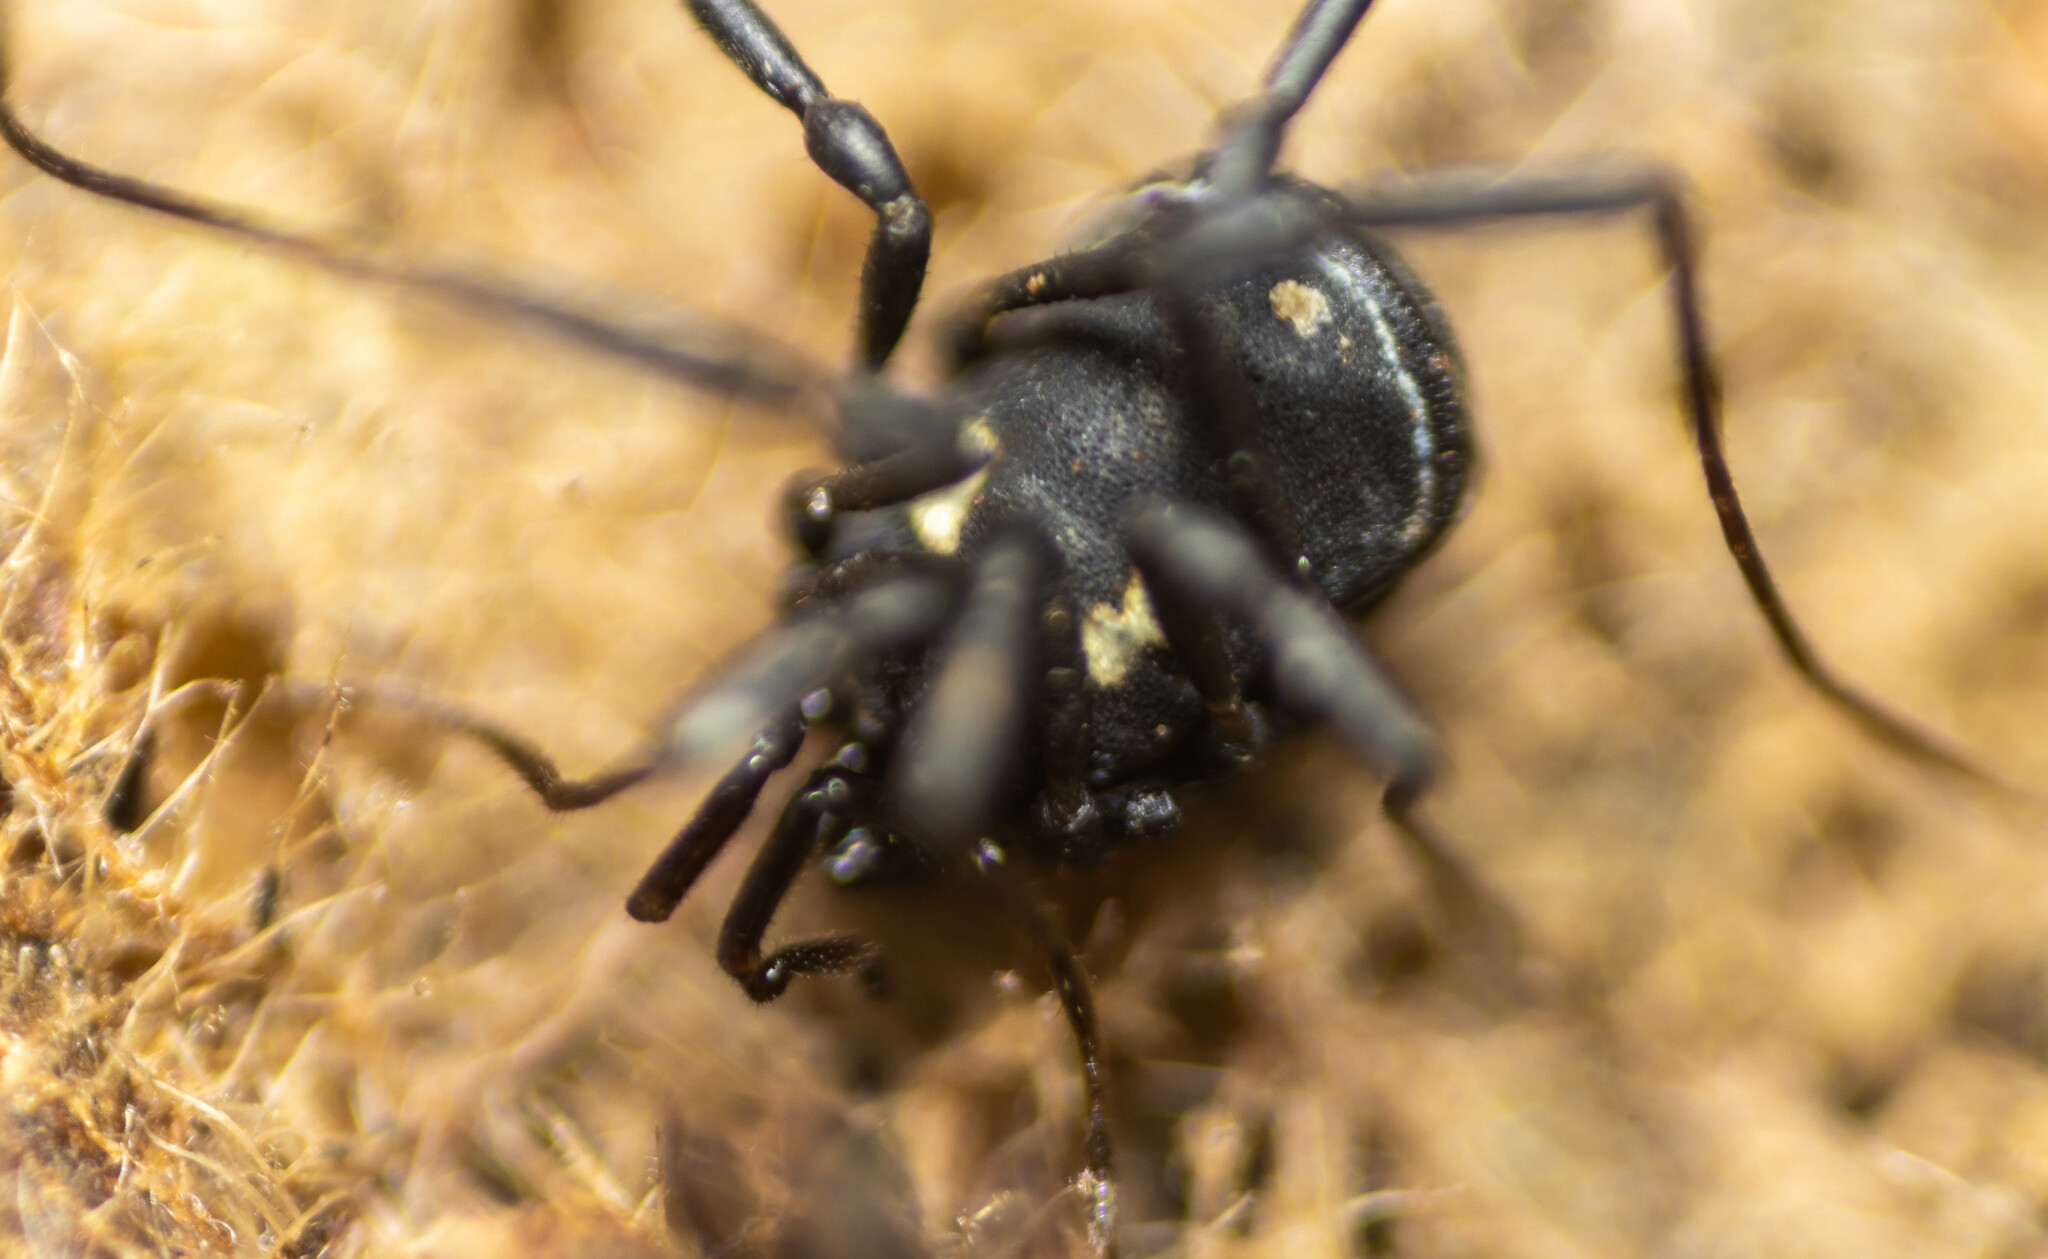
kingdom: Animalia
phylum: Arthropoda
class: Arachnida
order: Opiliones
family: Nemastomatidae
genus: Nemastoma
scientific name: Nemastoma bimaculatum
